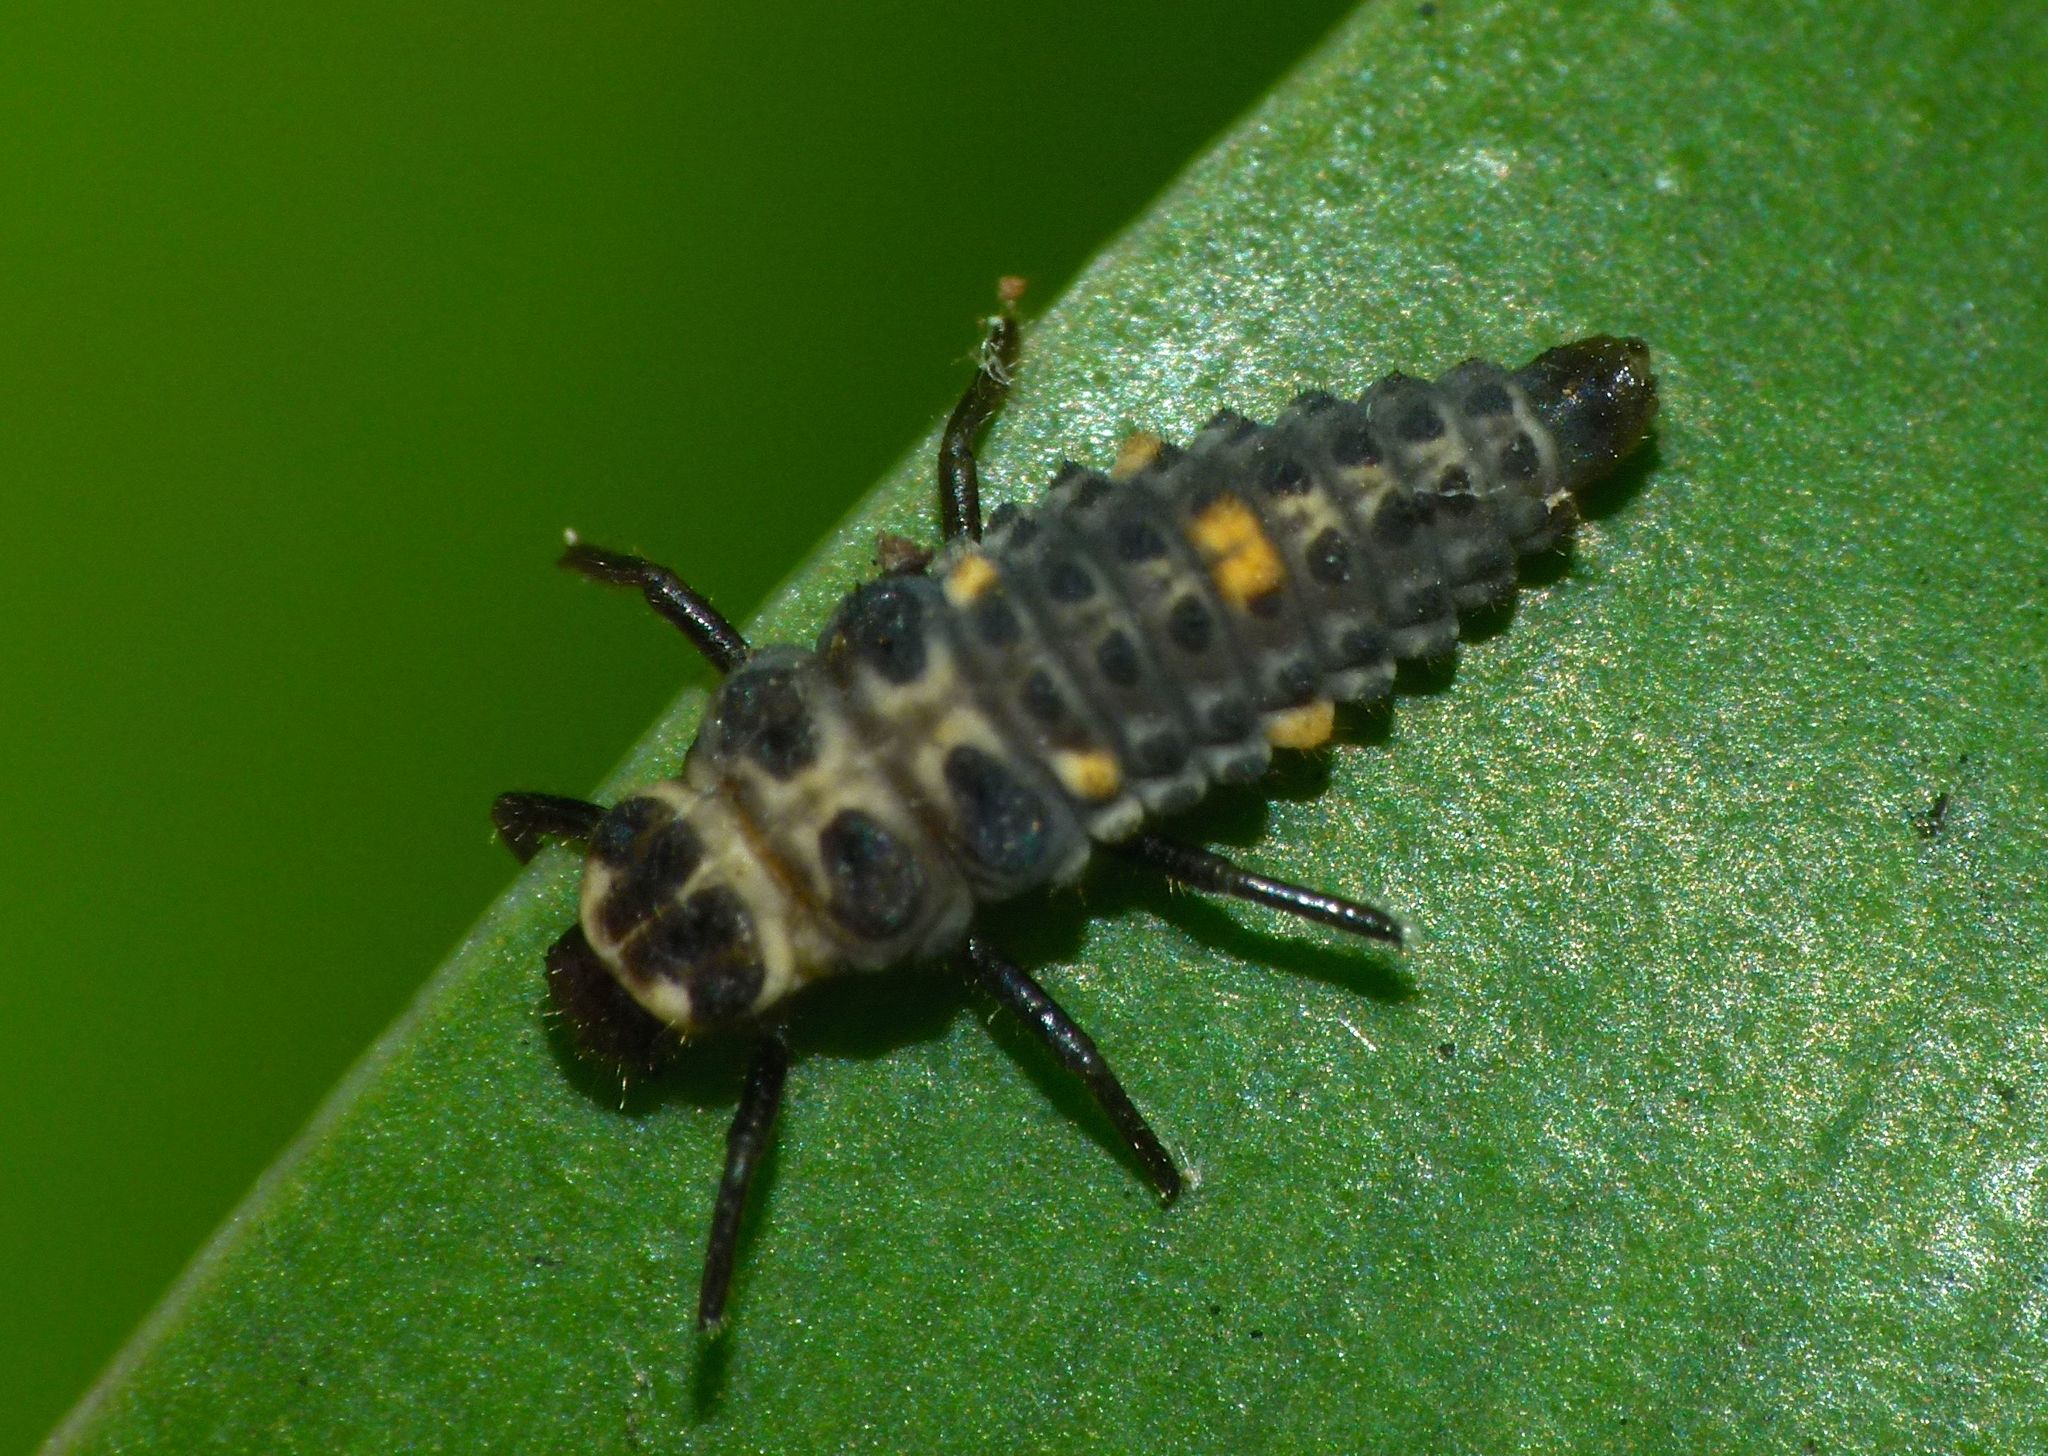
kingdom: Animalia
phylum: Arthropoda
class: Insecta
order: Coleoptera
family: Coccinellidae
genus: Adalia
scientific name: Adalia bipunctata
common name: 2-spot ladybird
